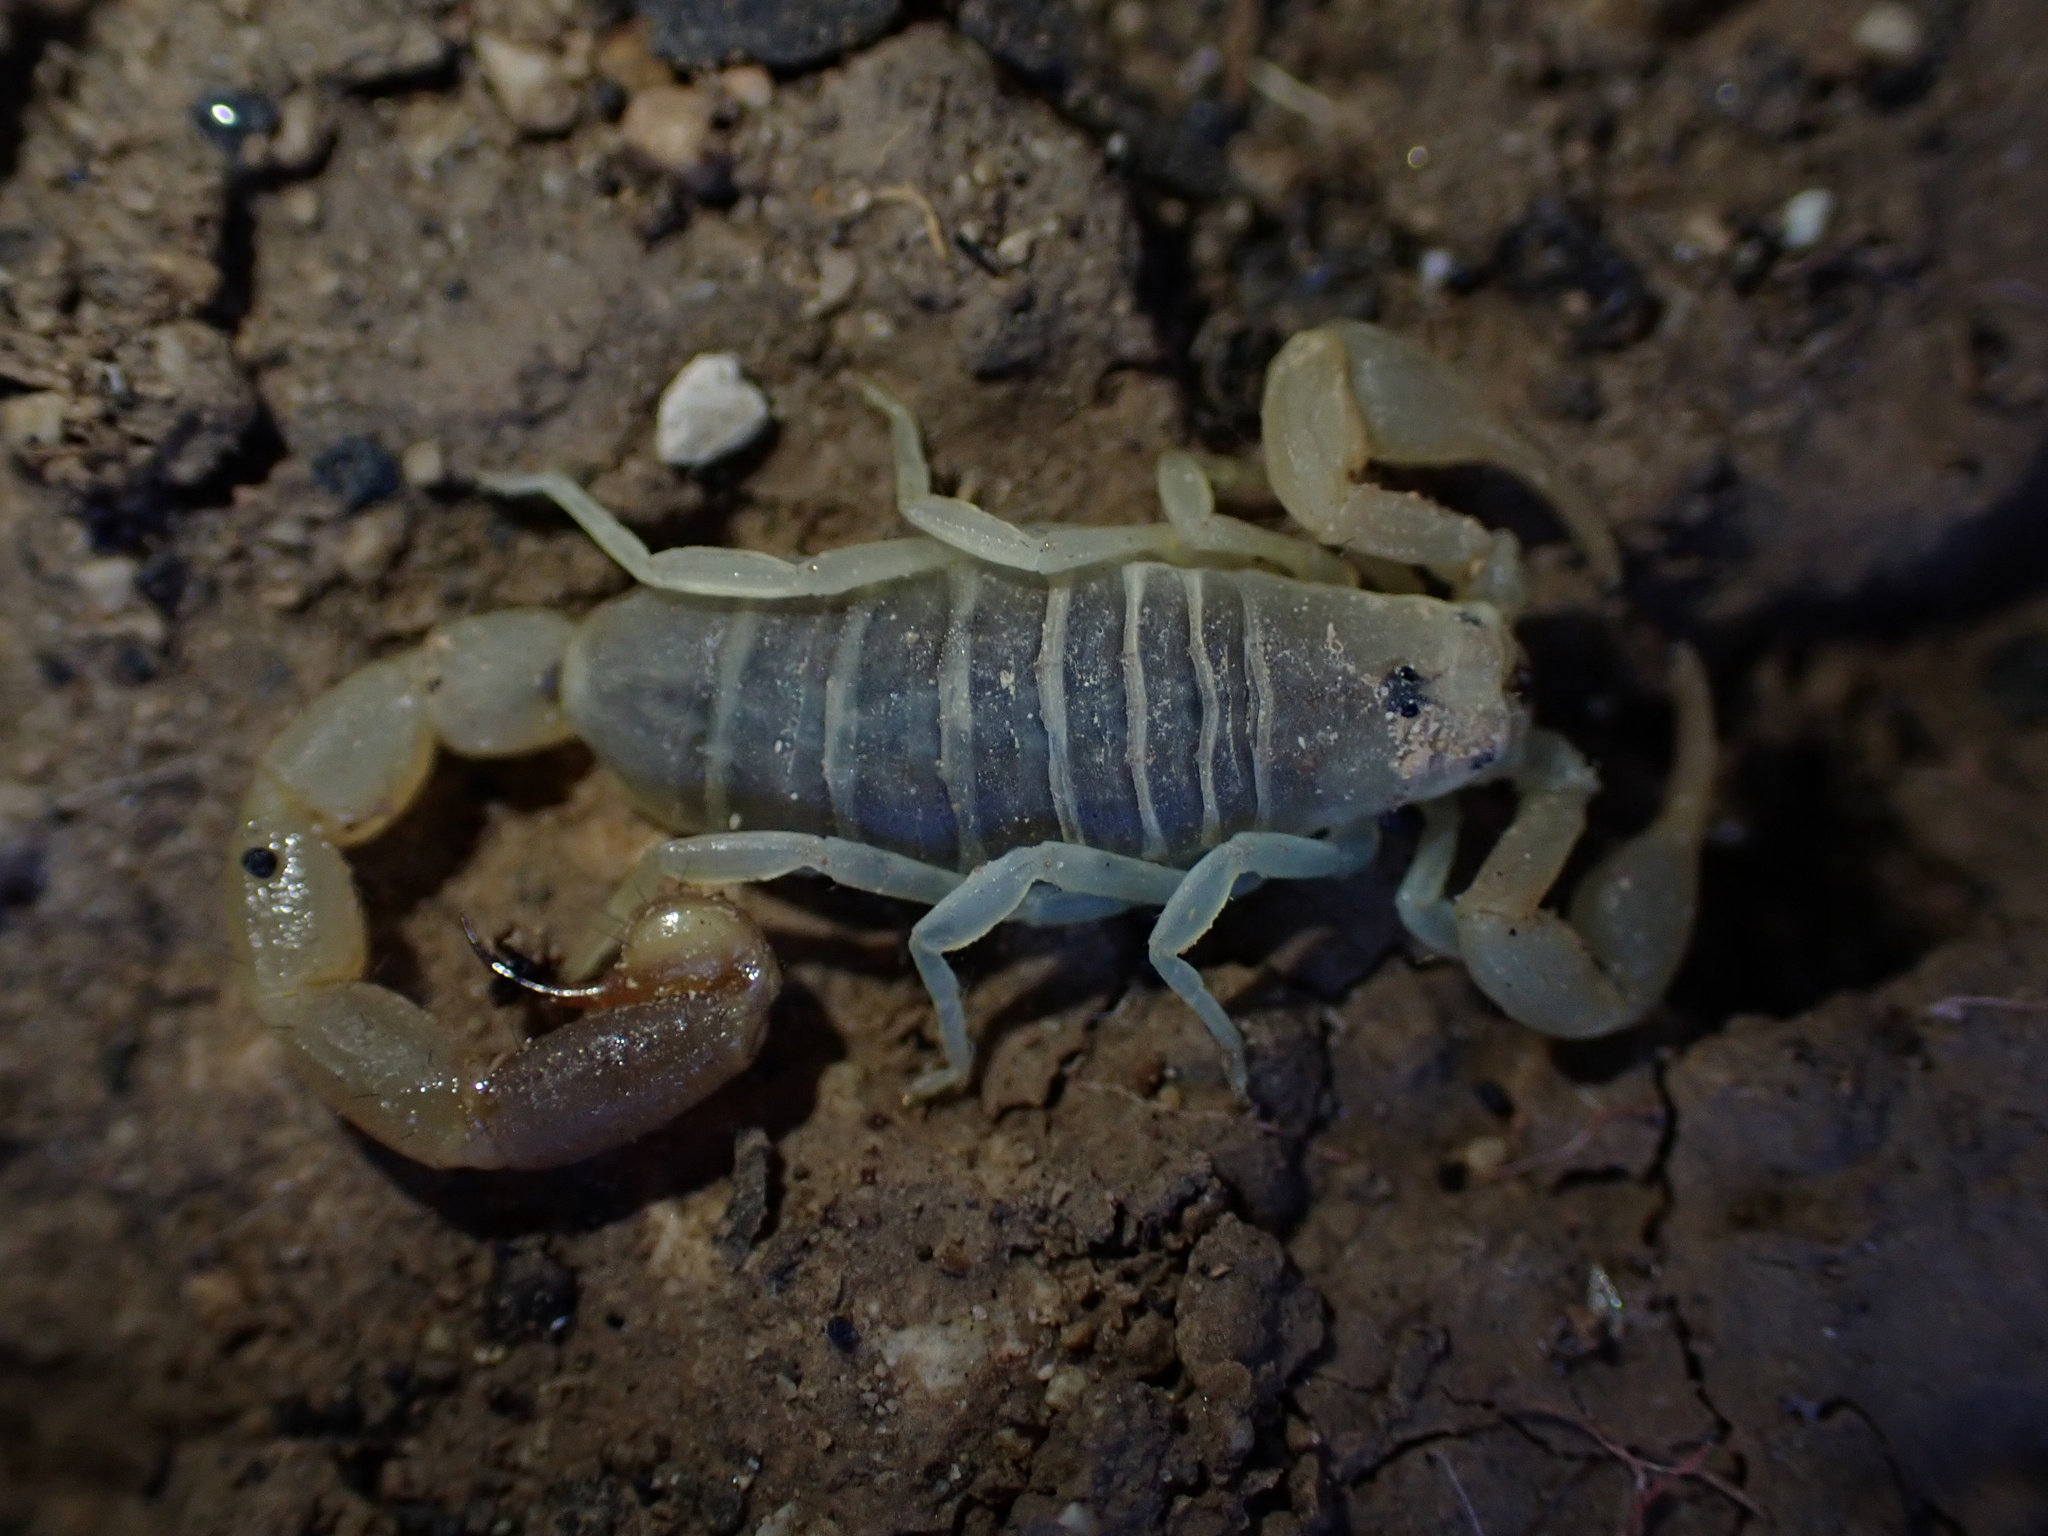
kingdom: Animalia
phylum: Arthropoda
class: Arachnida
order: Scorpiones
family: Buthidae
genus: Razianus
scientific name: Razianus zarudnyi
